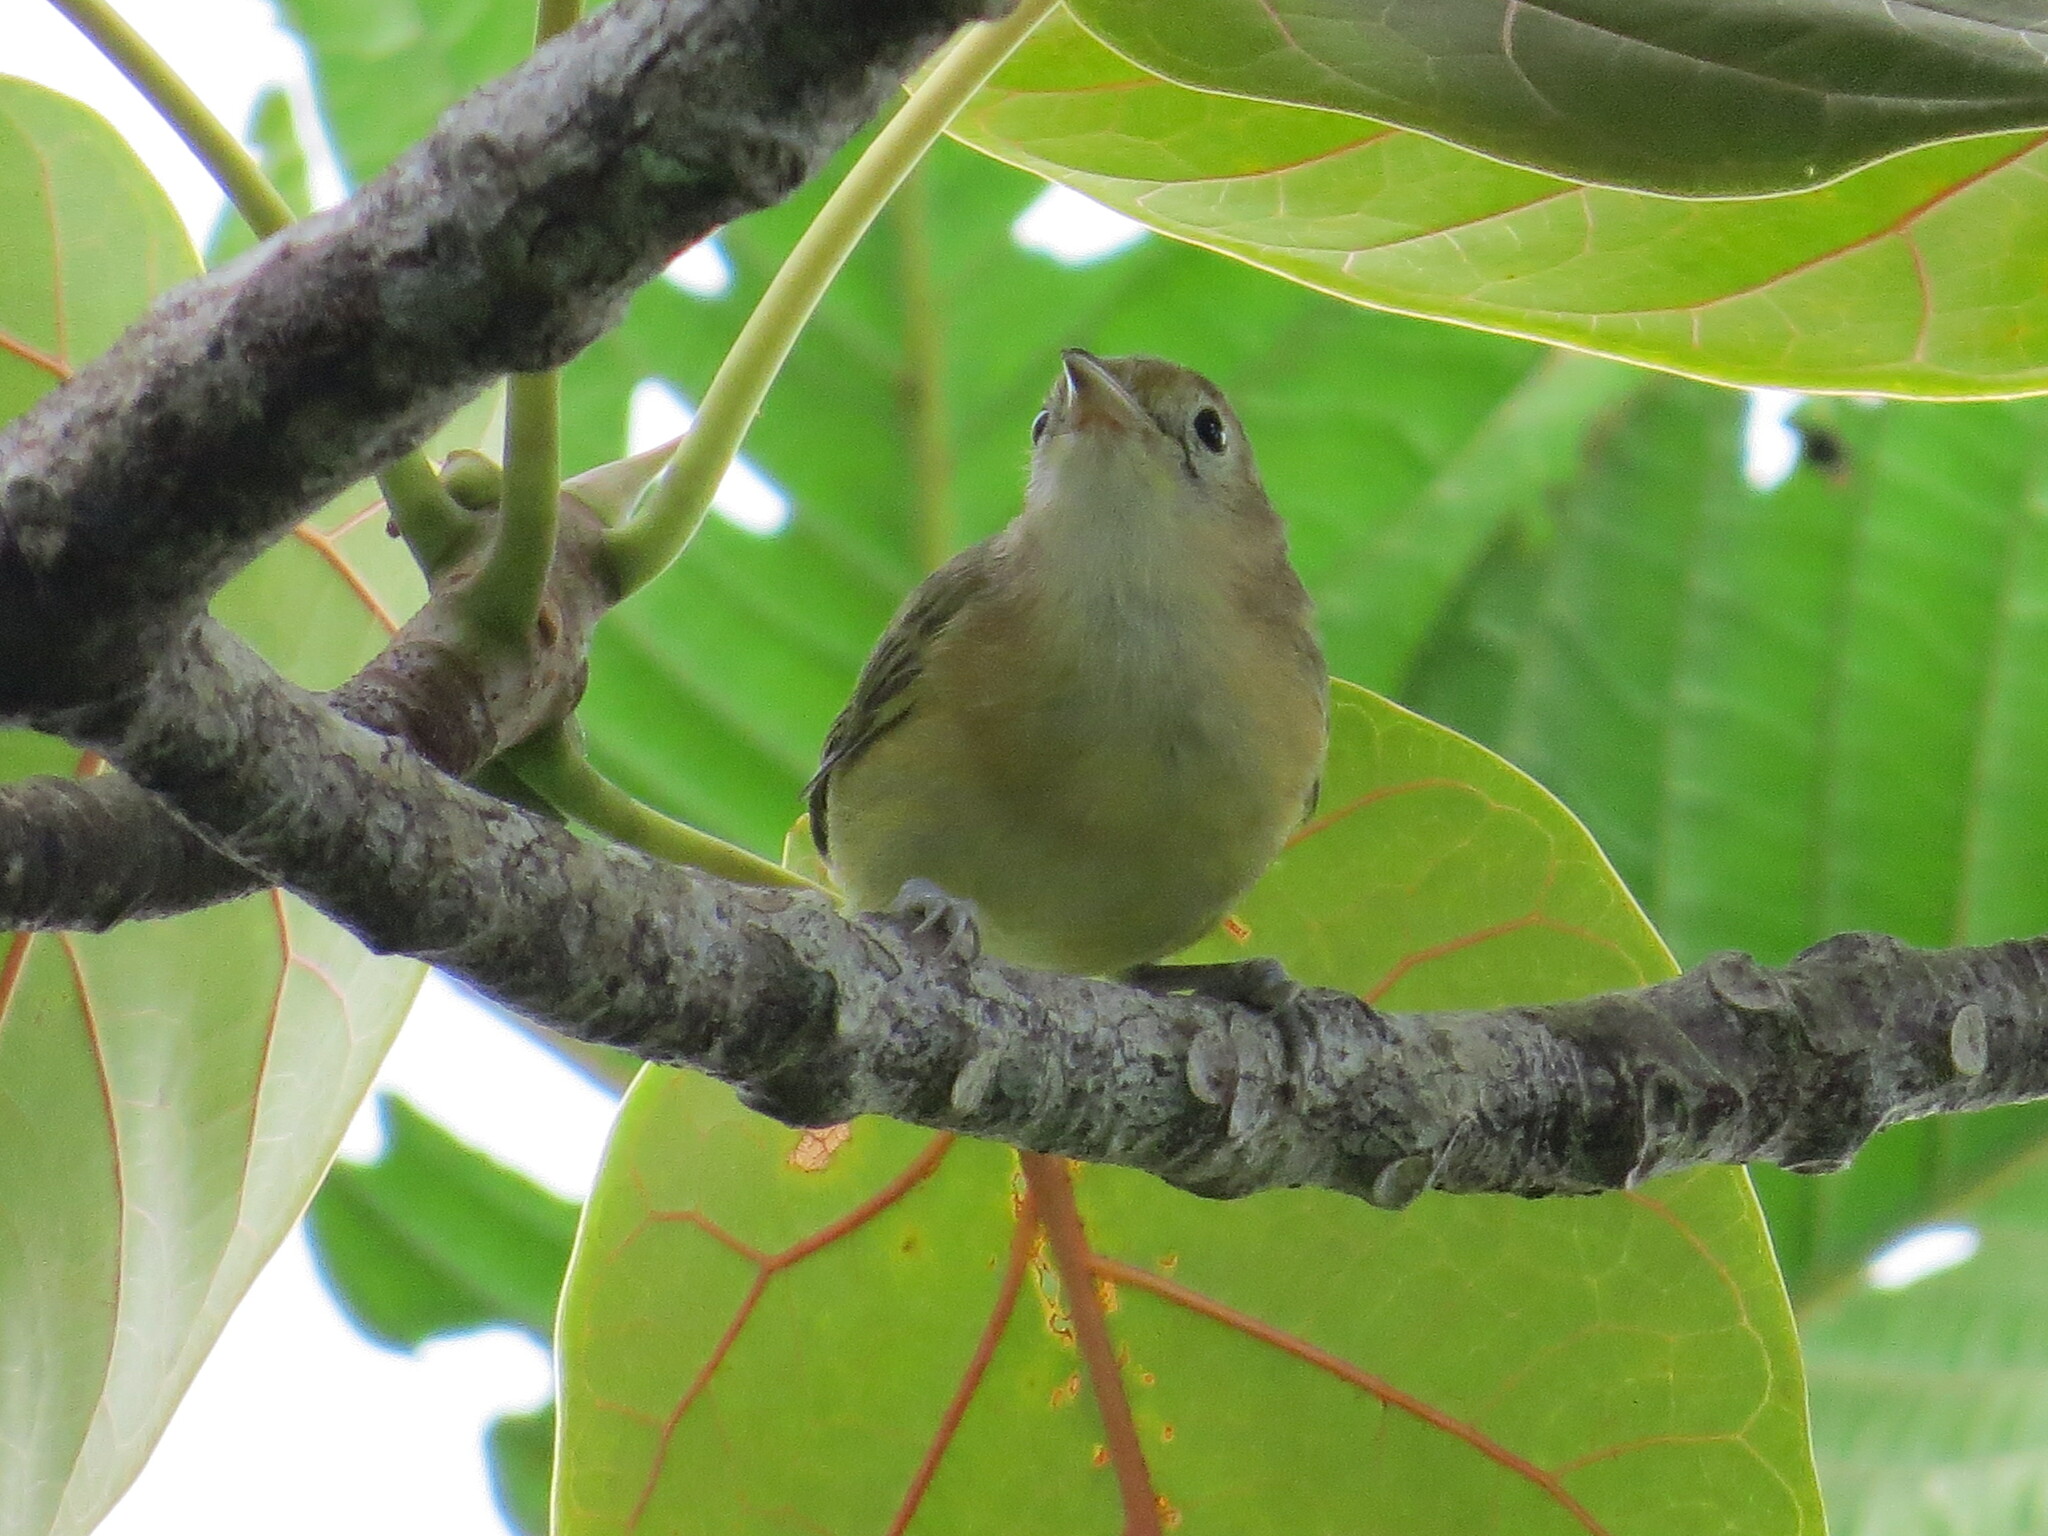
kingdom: Animalia
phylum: Chordata
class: Aves
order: Passeriformes
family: Vireonidae
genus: Hylophilus
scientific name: Hylophilus aurantiifrons
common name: Golden-fronted greenlet
